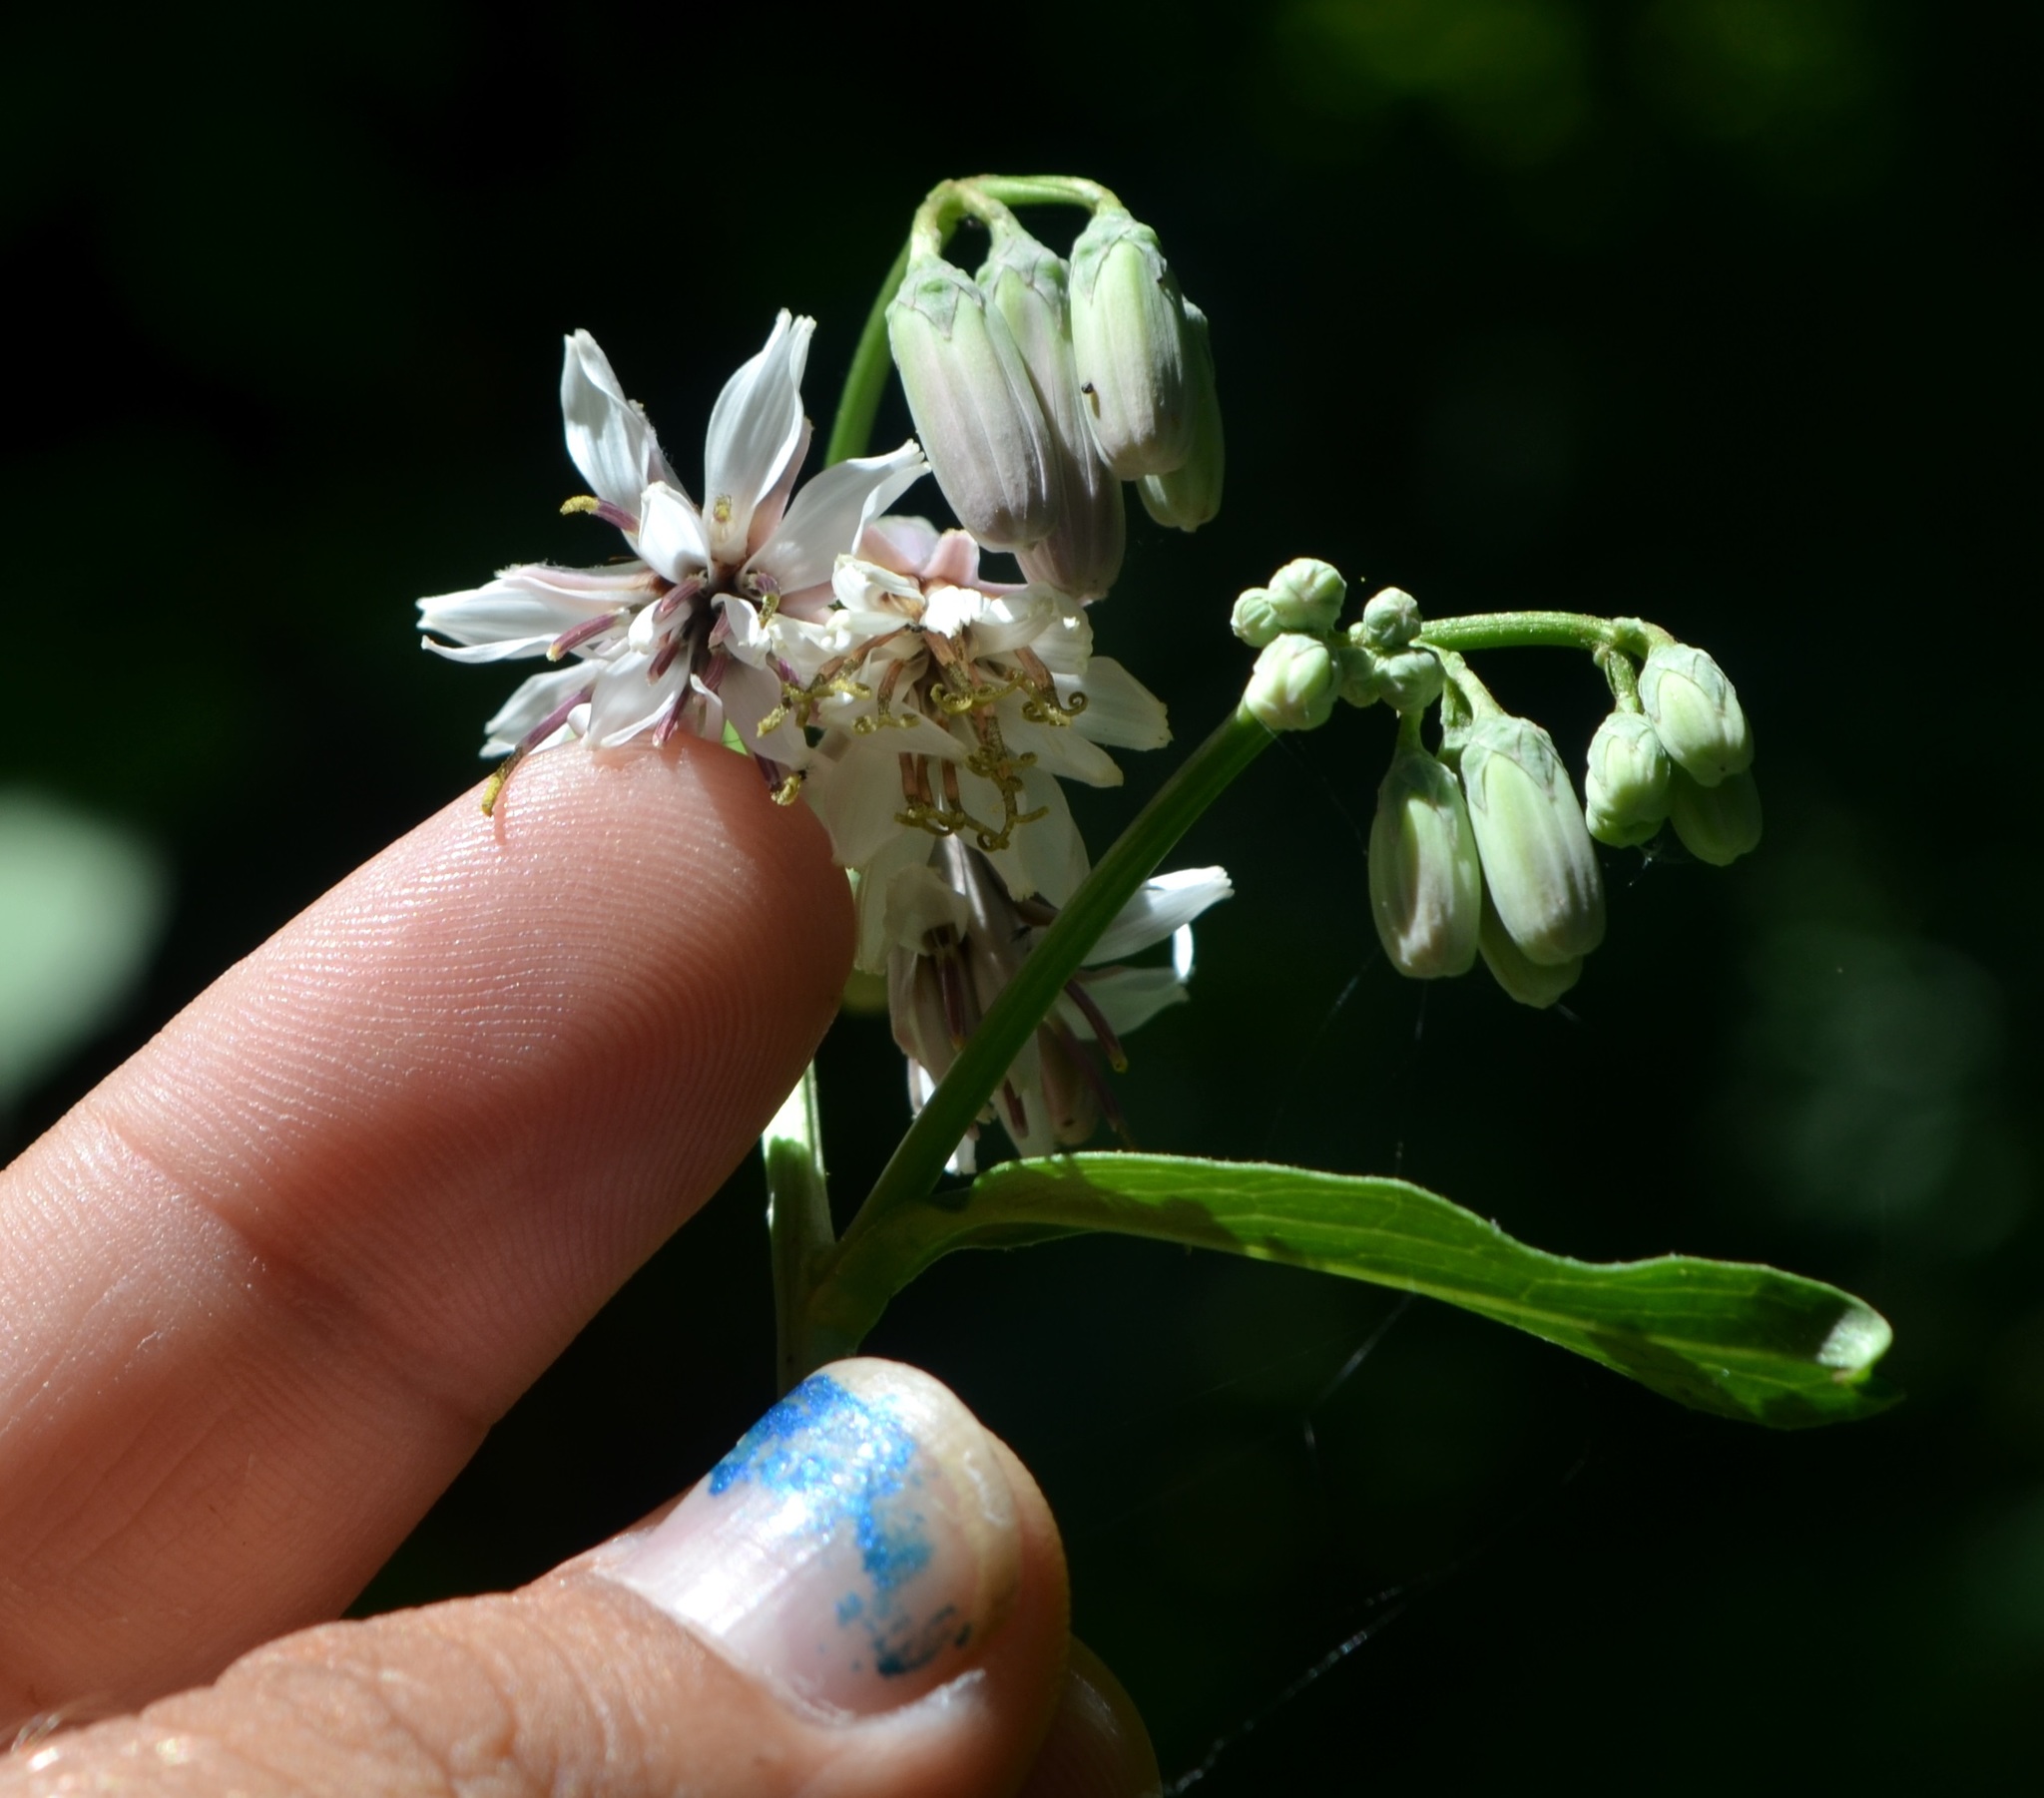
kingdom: Plantae
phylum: Tracheophyta
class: Magnoliopsida
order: Asterales
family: Asteraceae
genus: Nabalus
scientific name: Nabalus albus
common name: White rattlesnakeroot
